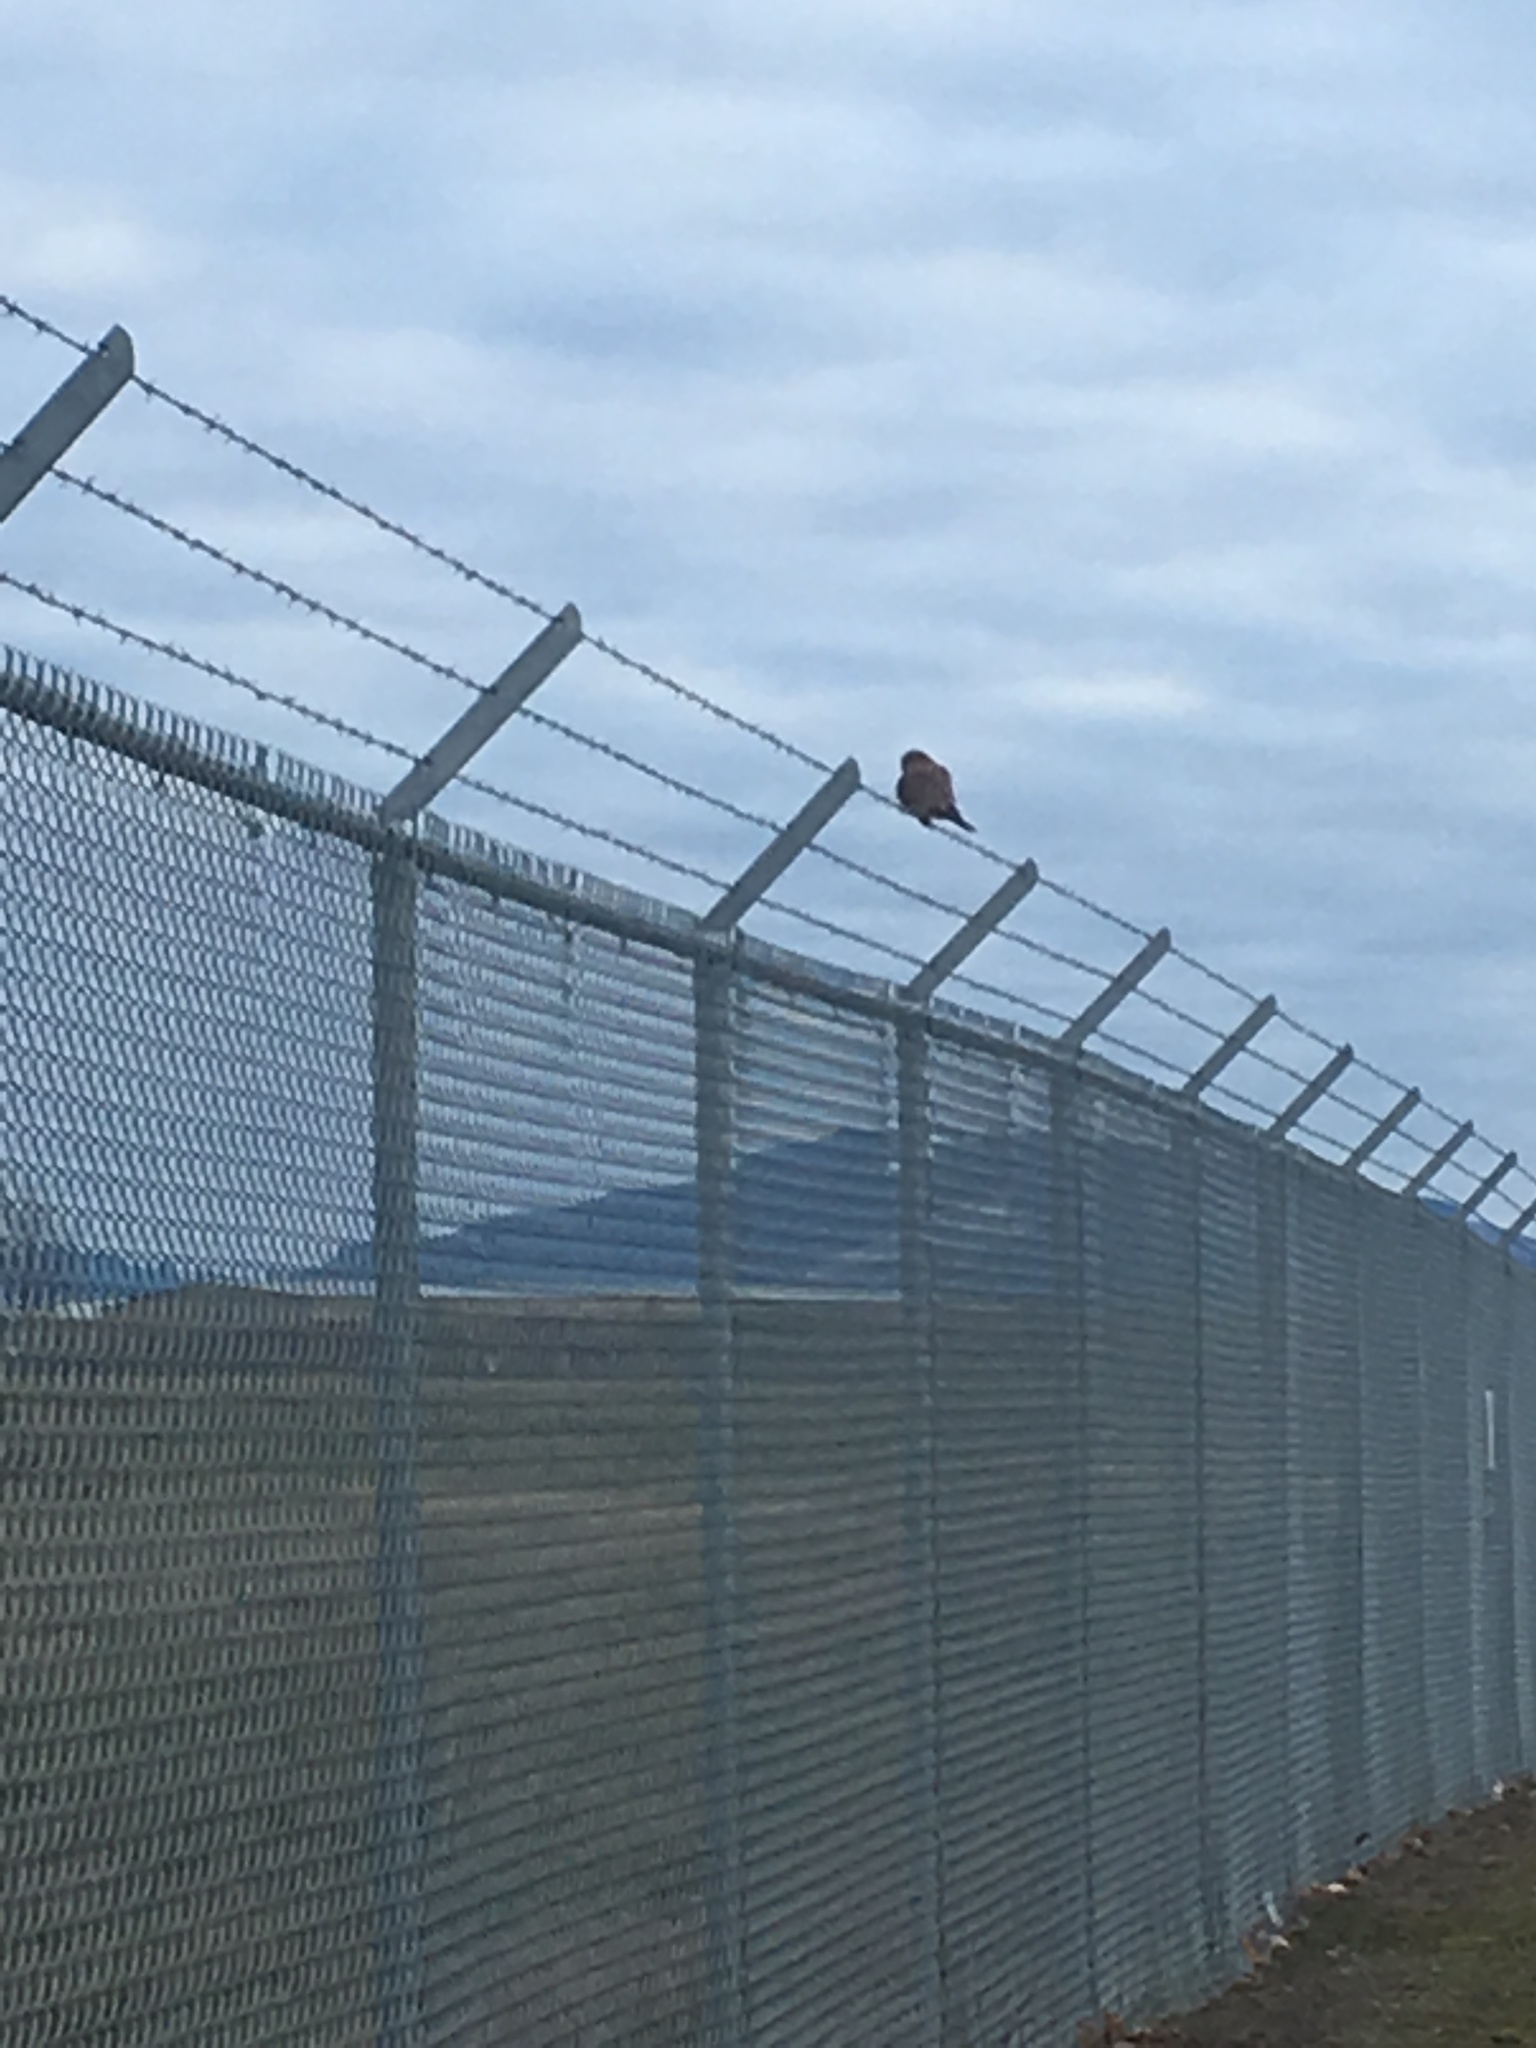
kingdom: Animalia
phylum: Chordata
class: Aves
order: Falconiformes
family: Falconidae
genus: Falco
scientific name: Falco sparverius
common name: American kestrel
